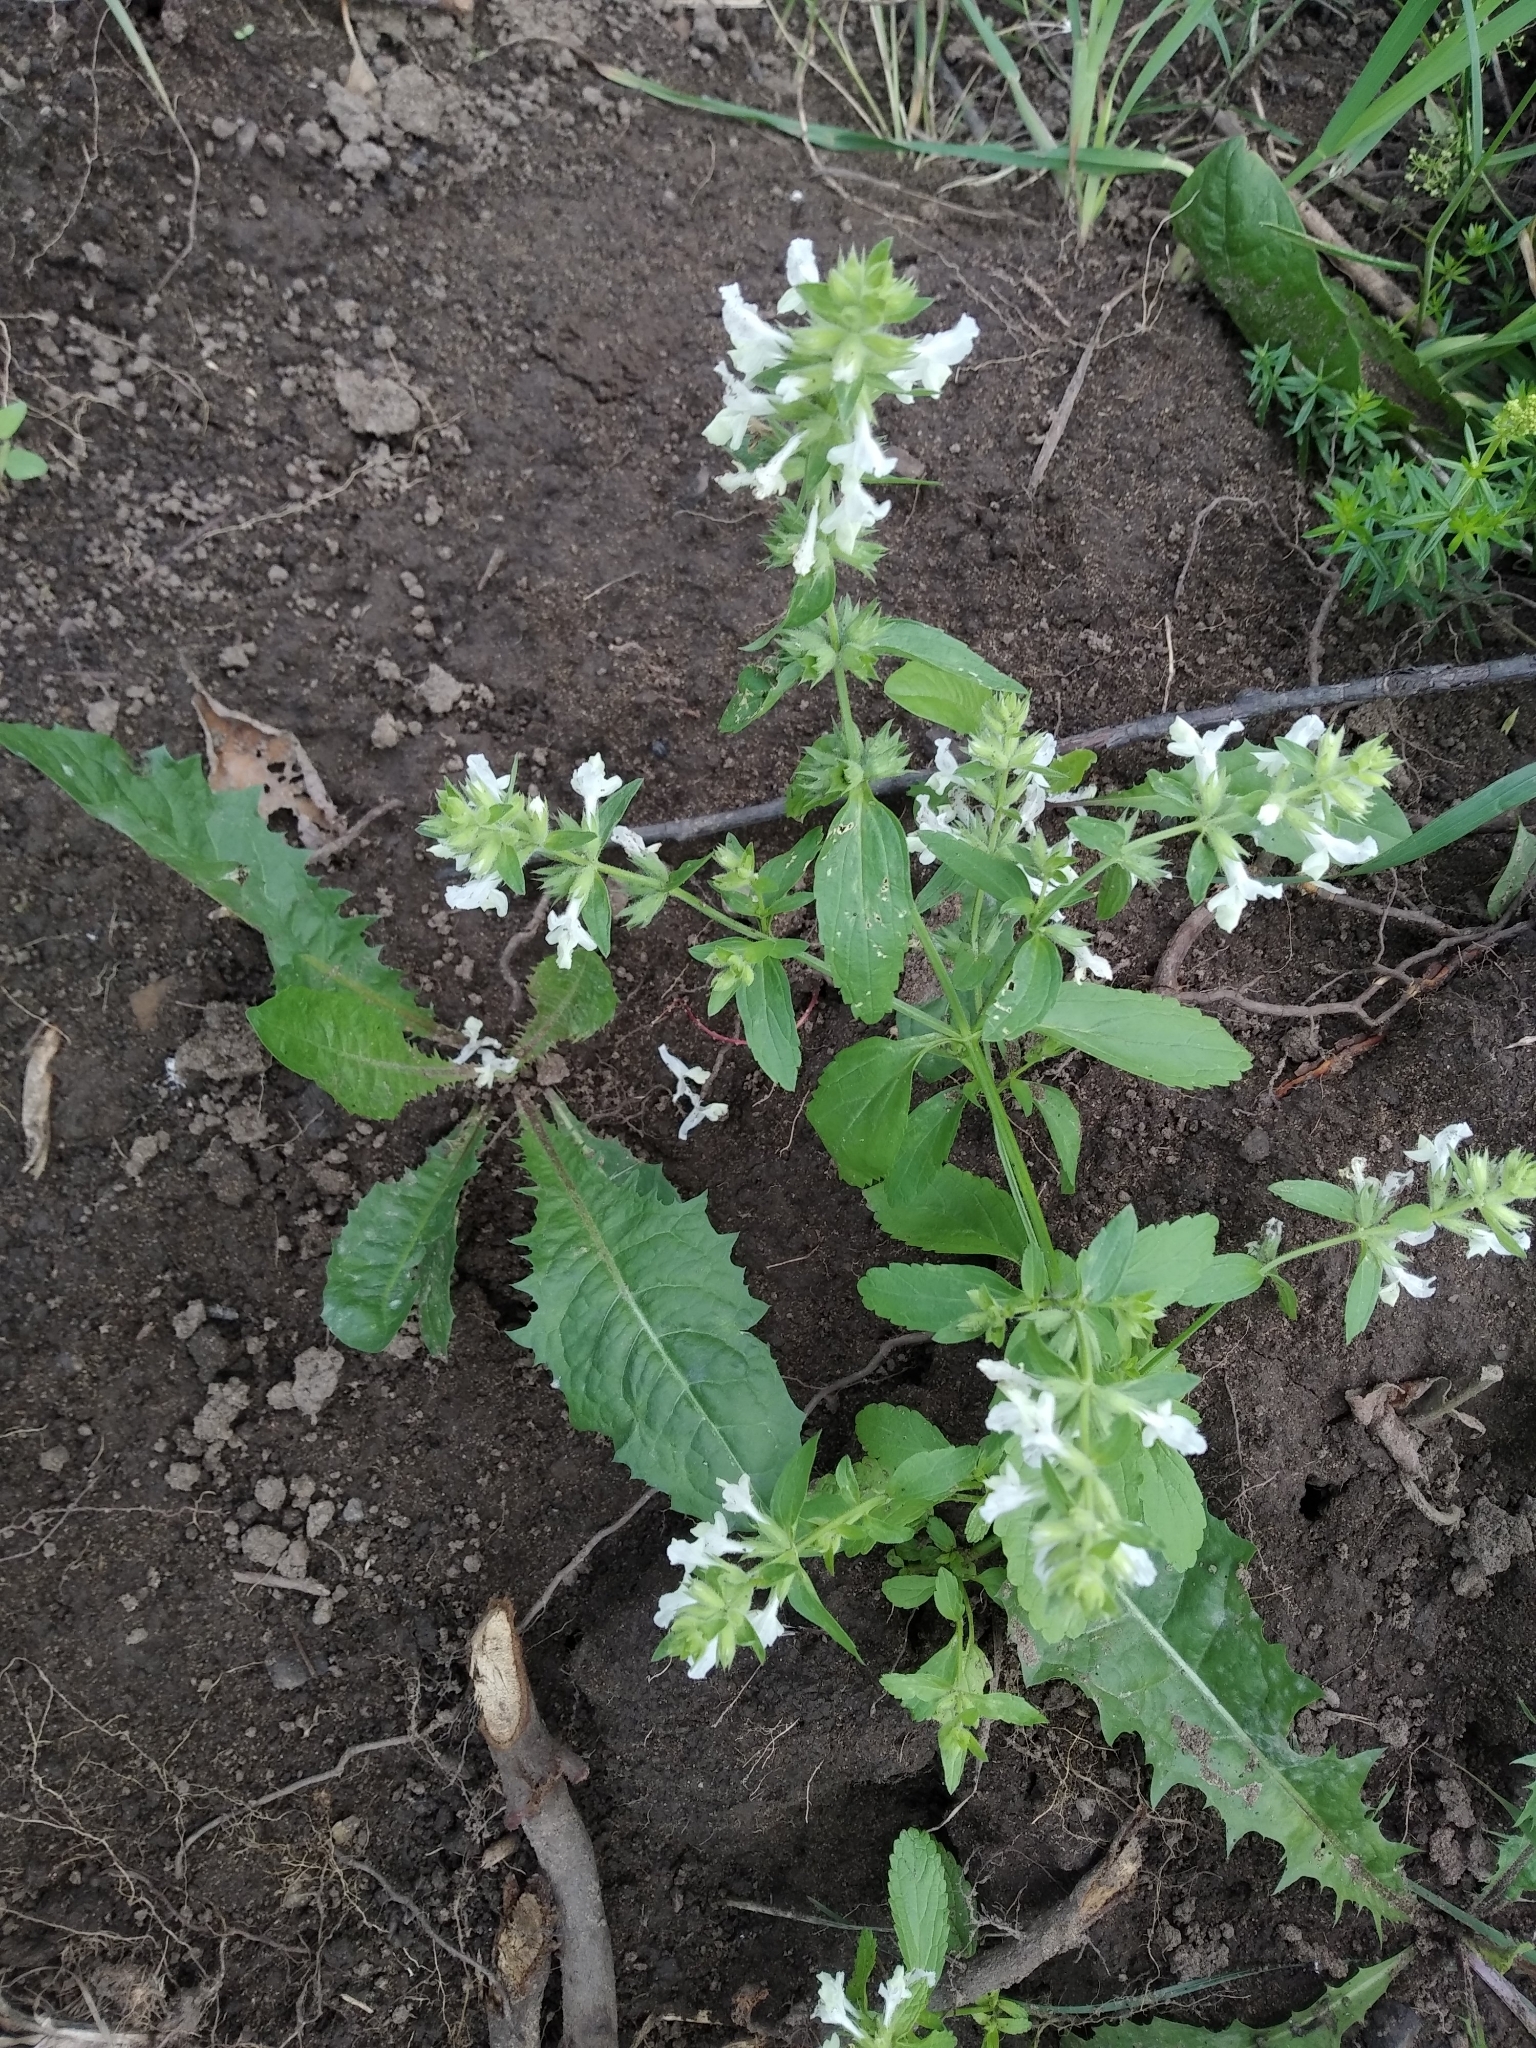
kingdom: Plantae
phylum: Tracheophyta
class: Magnoliopsida
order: Lamiales
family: Lamiaceae
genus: Stachys
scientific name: Stachys annua
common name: Annual yellow-woundwort
